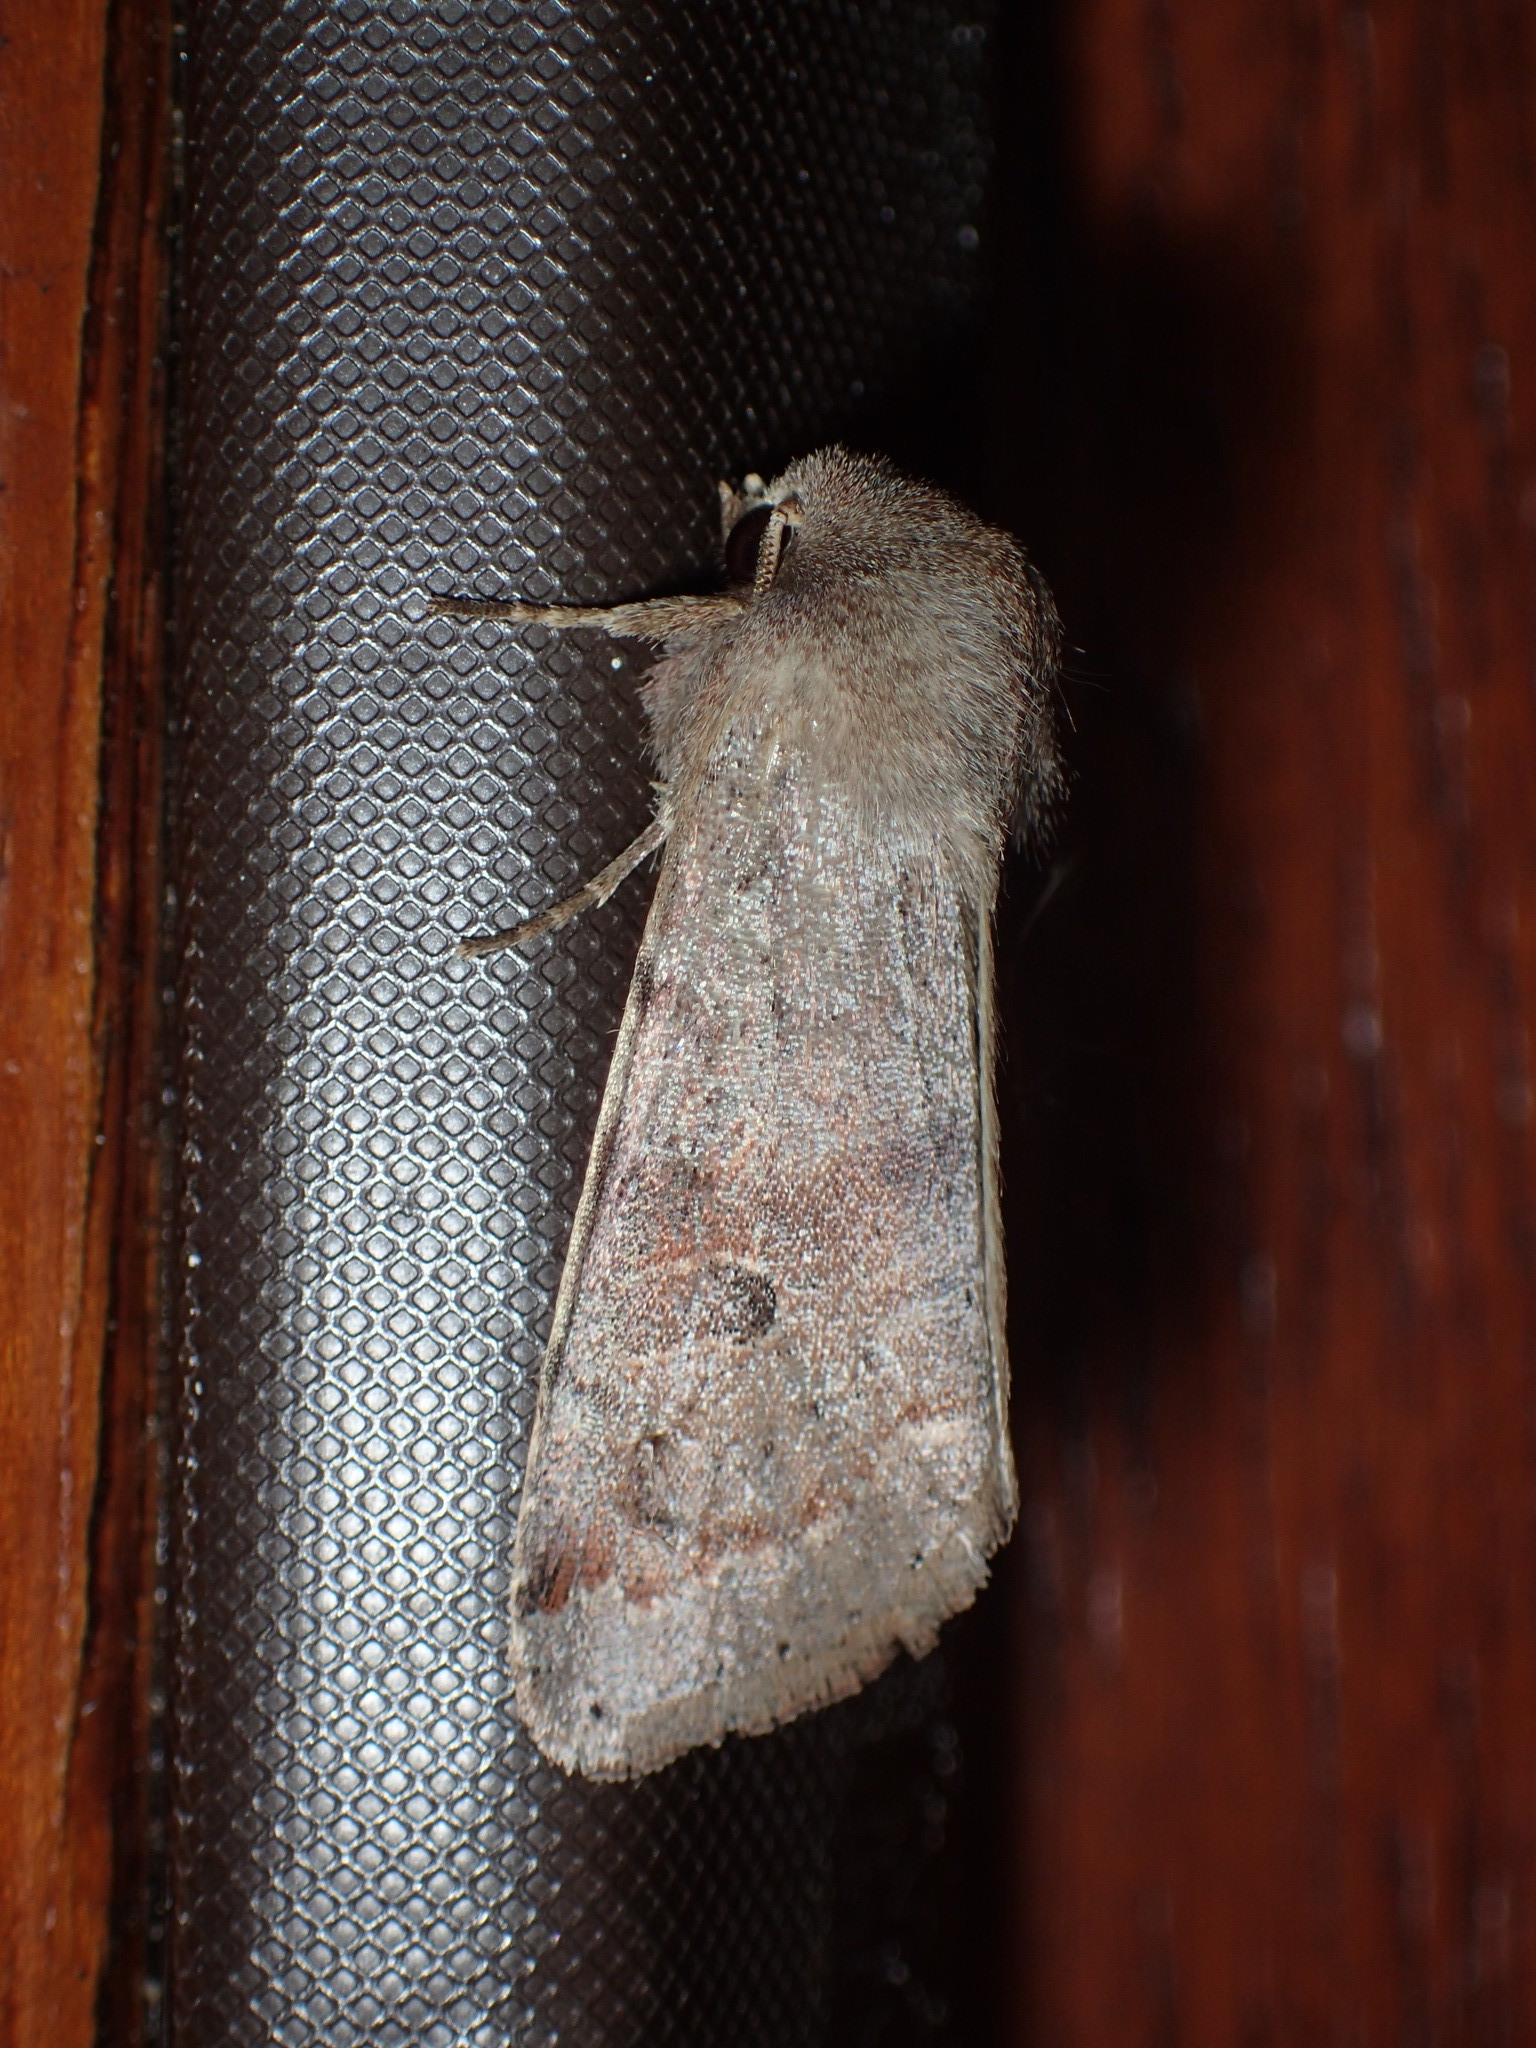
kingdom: Animalia
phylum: Arthropoda
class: Insecta
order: Lepidoptera
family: Noctuidae
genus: Orthosia
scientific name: Orthosia alurina
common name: Gray quaker
